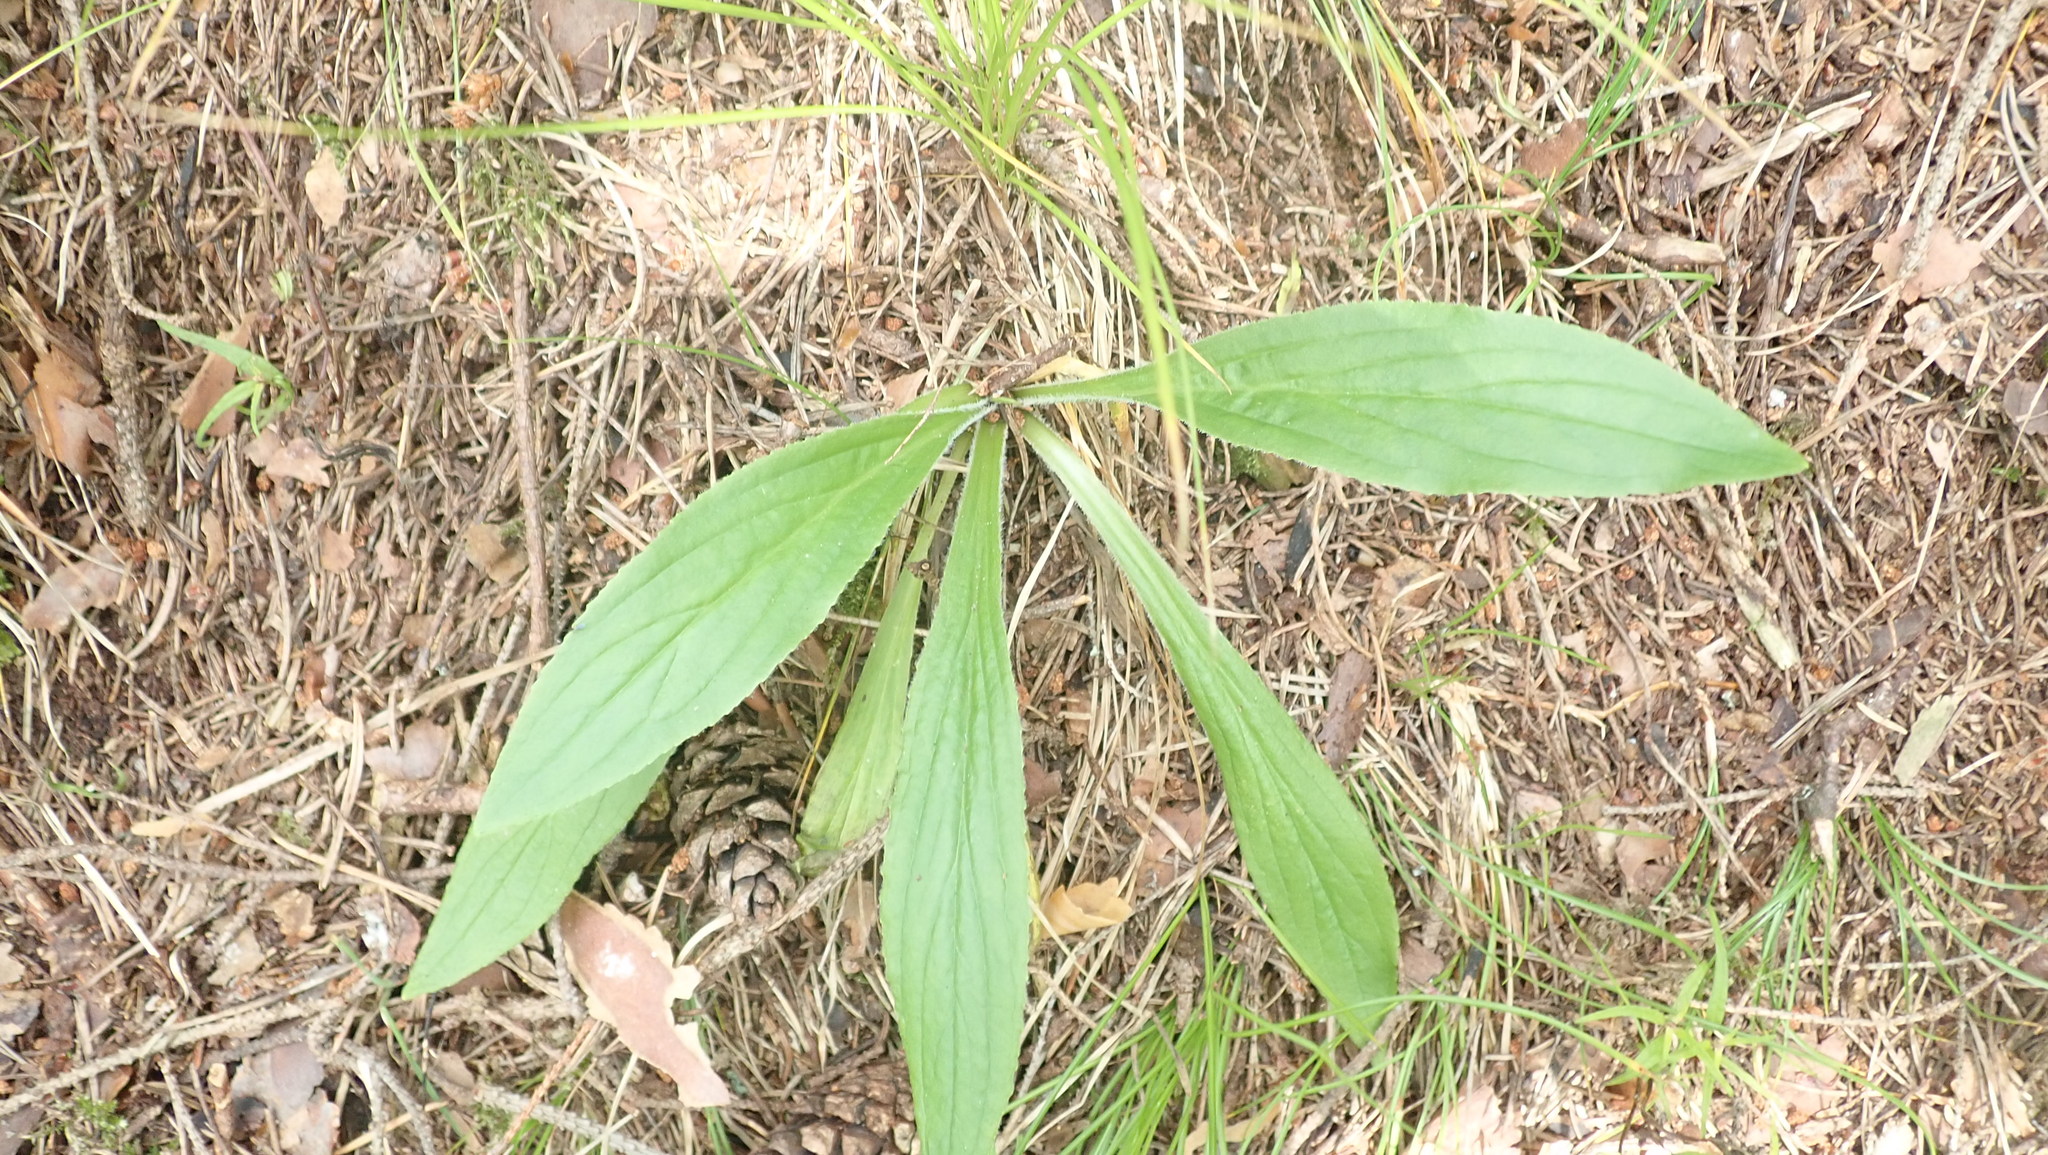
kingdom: Plantae
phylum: Tracheophyta
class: Magnoliopsida
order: Lamiales
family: Plantaginaceae
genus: Digitalis
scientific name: Digitalis grandiflora
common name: Yellow foxglove
